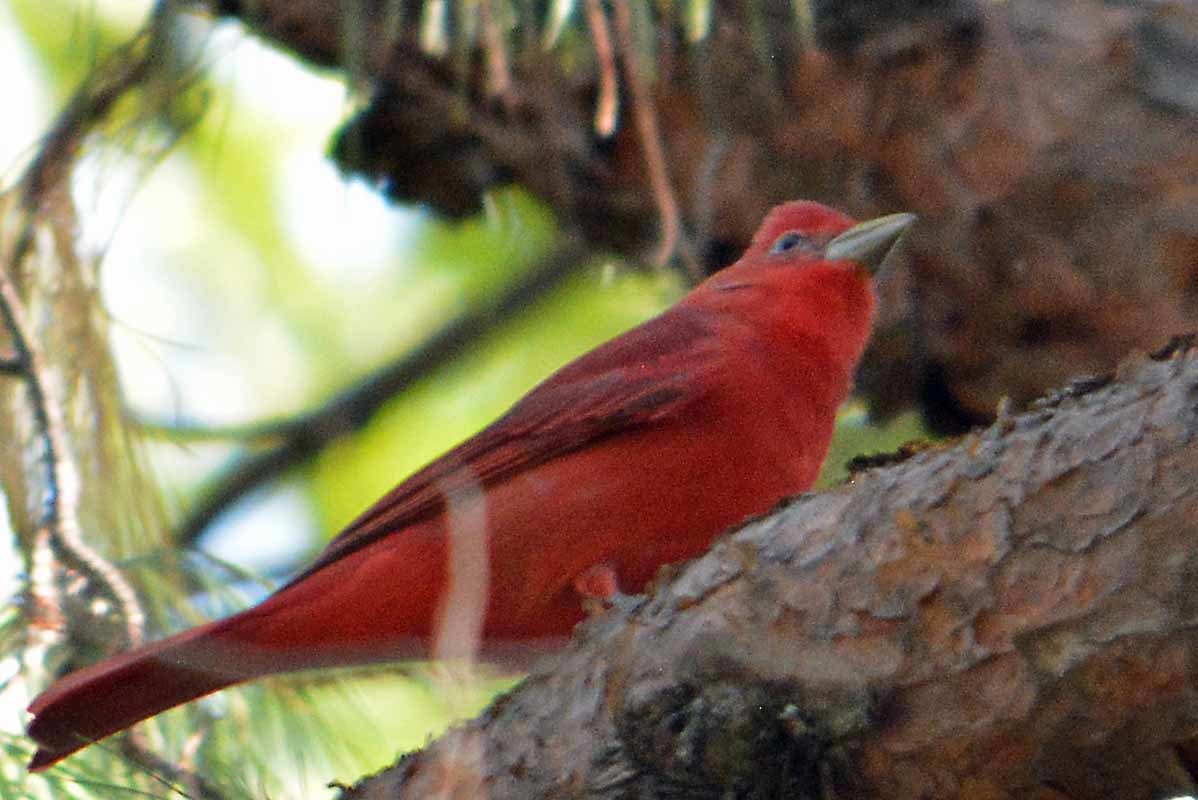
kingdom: Animalia
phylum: Chordata
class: Aves
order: Passeriformes
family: Cardinalidae
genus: Piranga
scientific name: Piranga rubra
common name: Summer tanager
